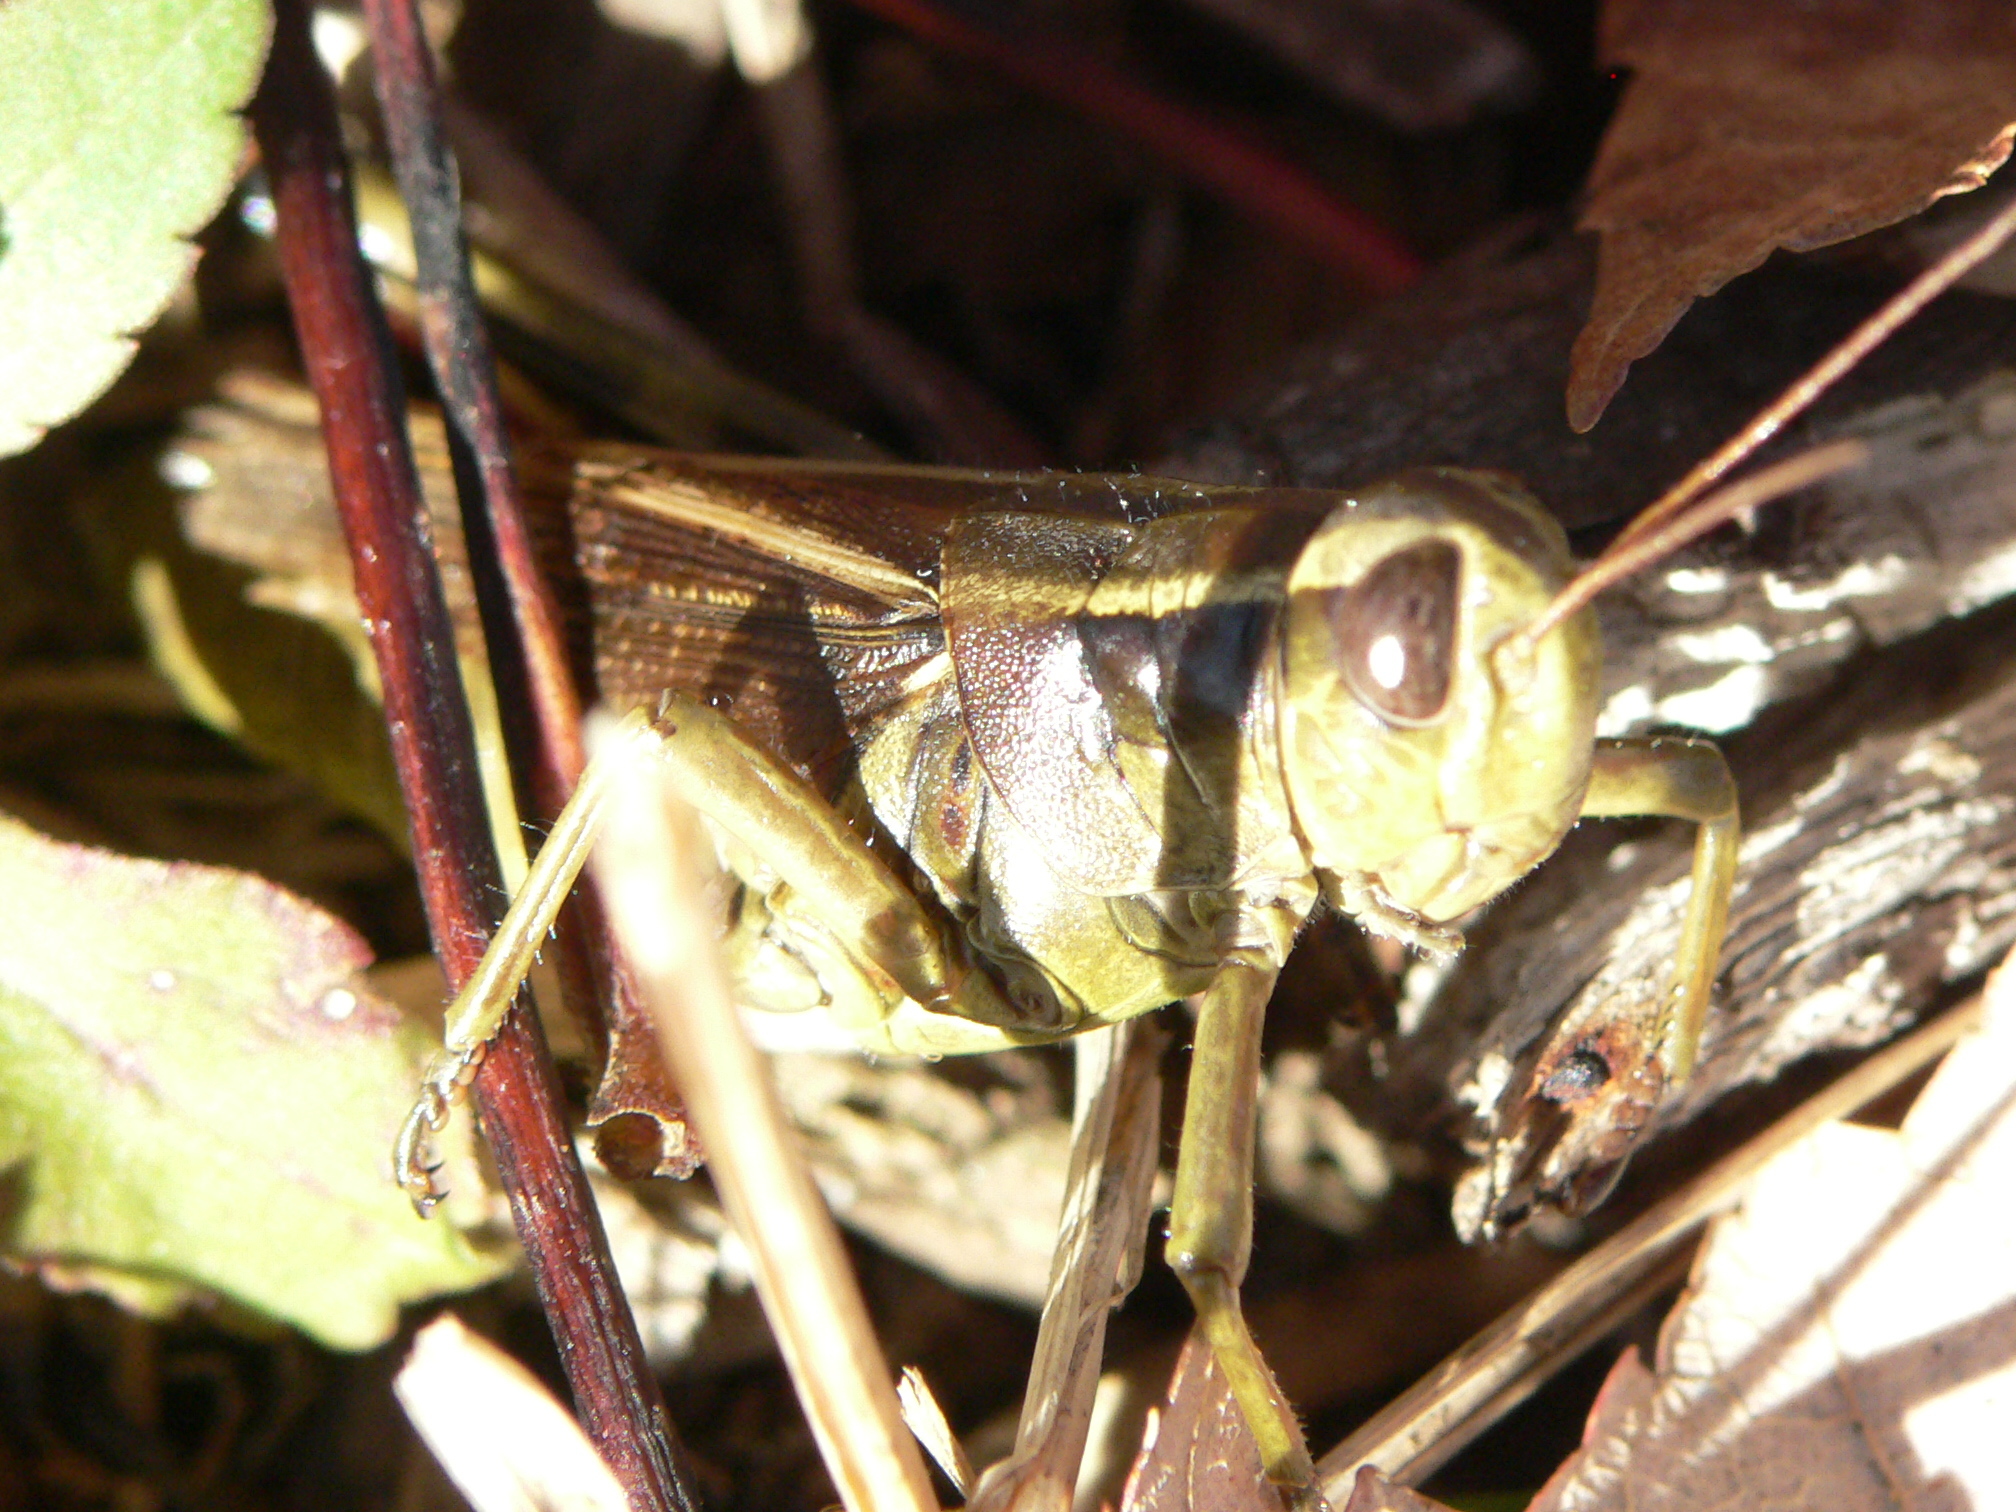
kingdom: Animalia
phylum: Arthropoda
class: Insecta
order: Orthoptera
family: Acrididae
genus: Melanoplus
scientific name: Melanoplus bivittatus
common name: Two-striped grasshopper
